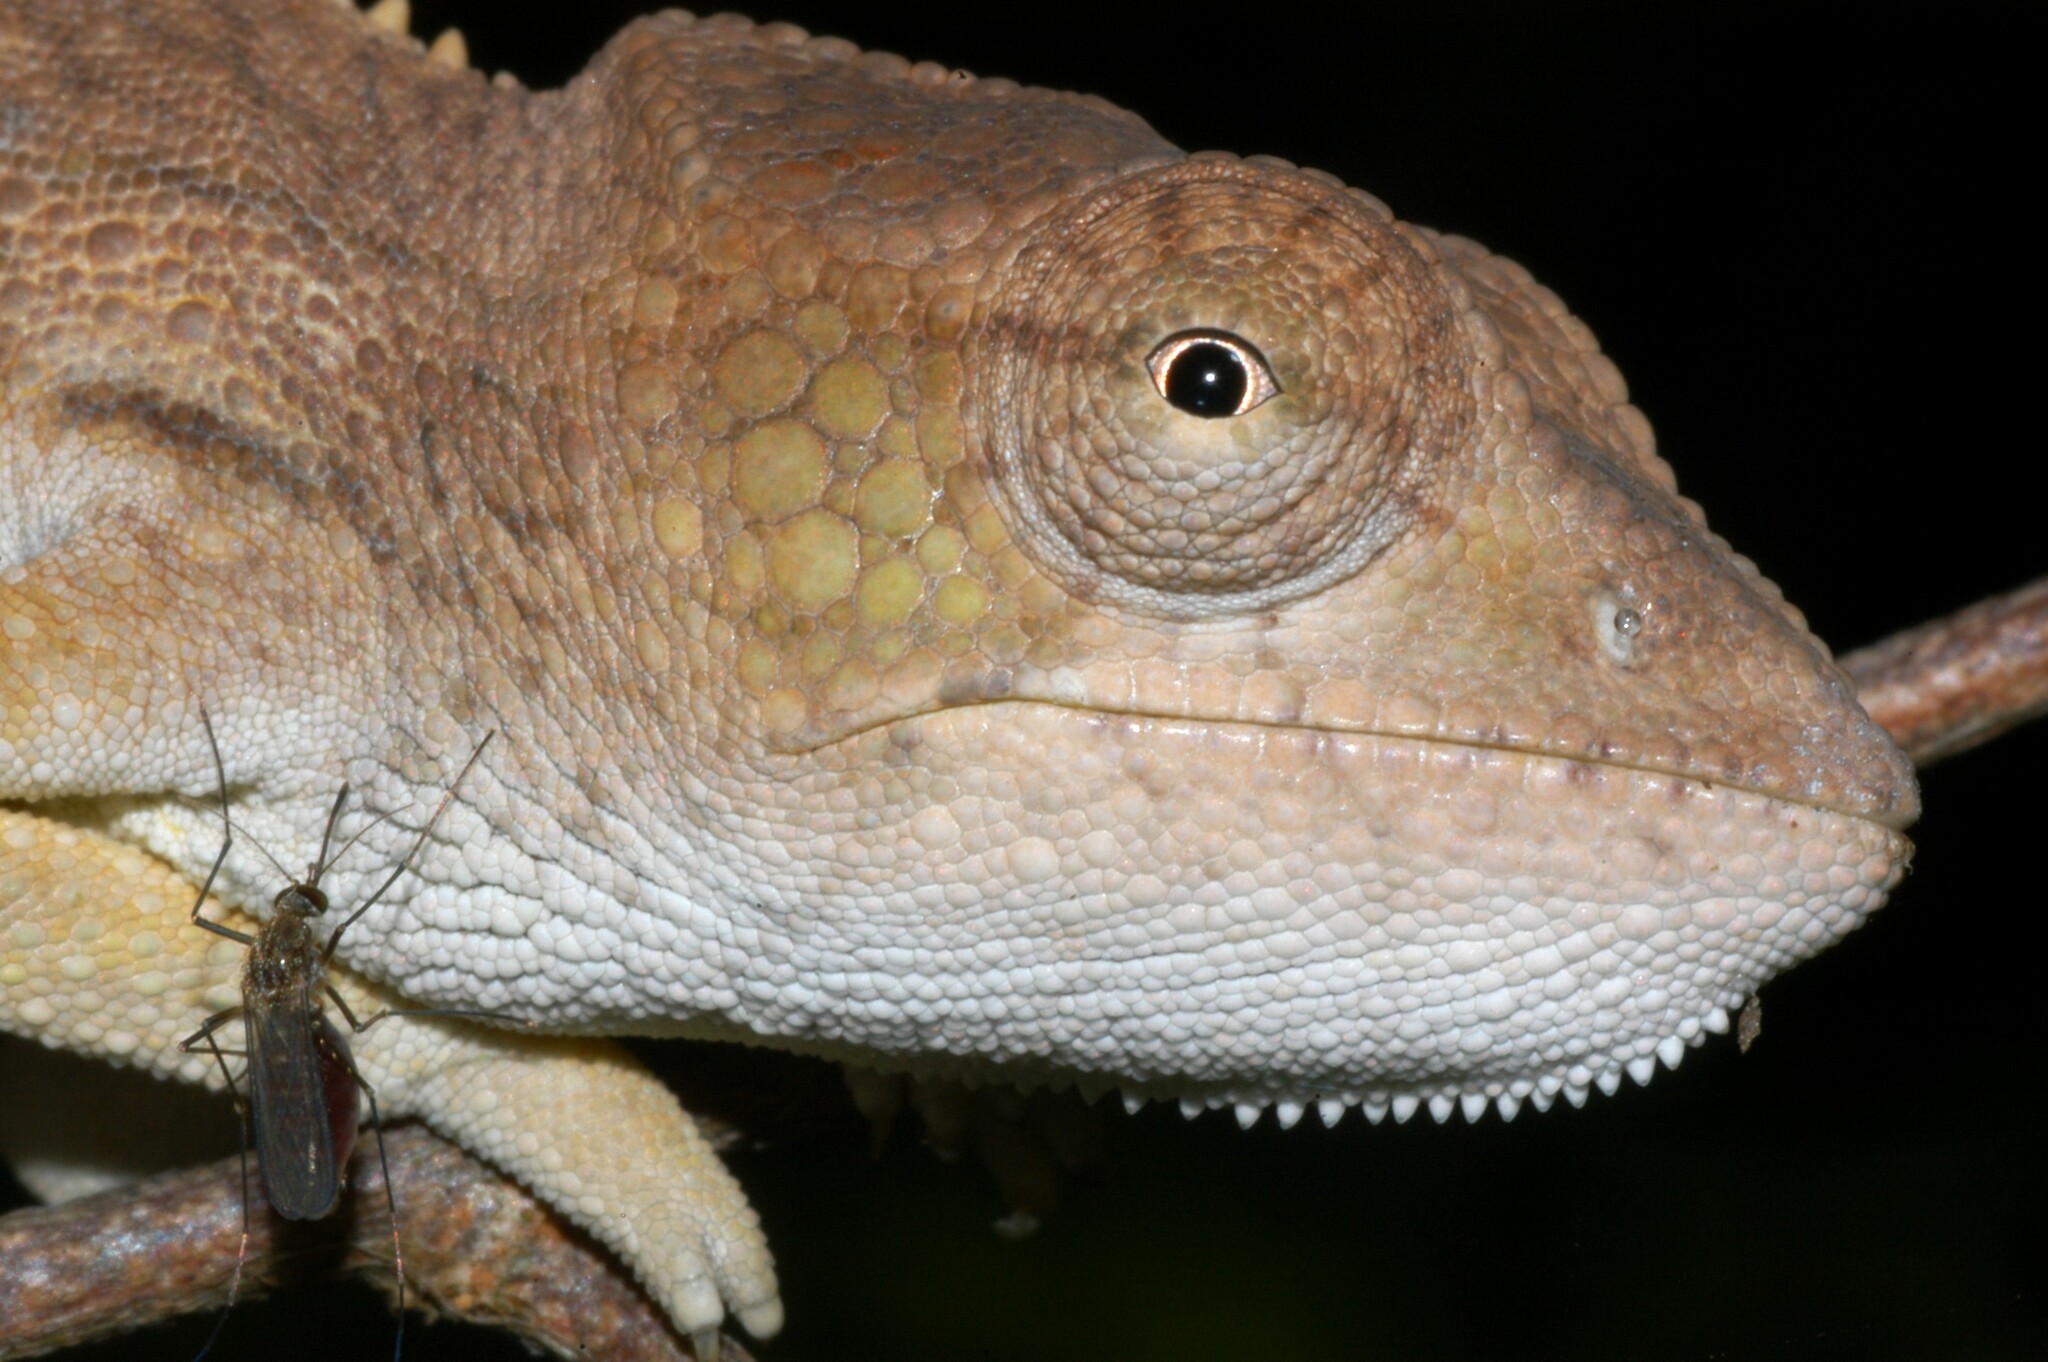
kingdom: Animalia
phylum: Chordata
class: Squamata
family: Chamaeleonidae
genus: Furcifer
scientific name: Furcifer nicosiai
